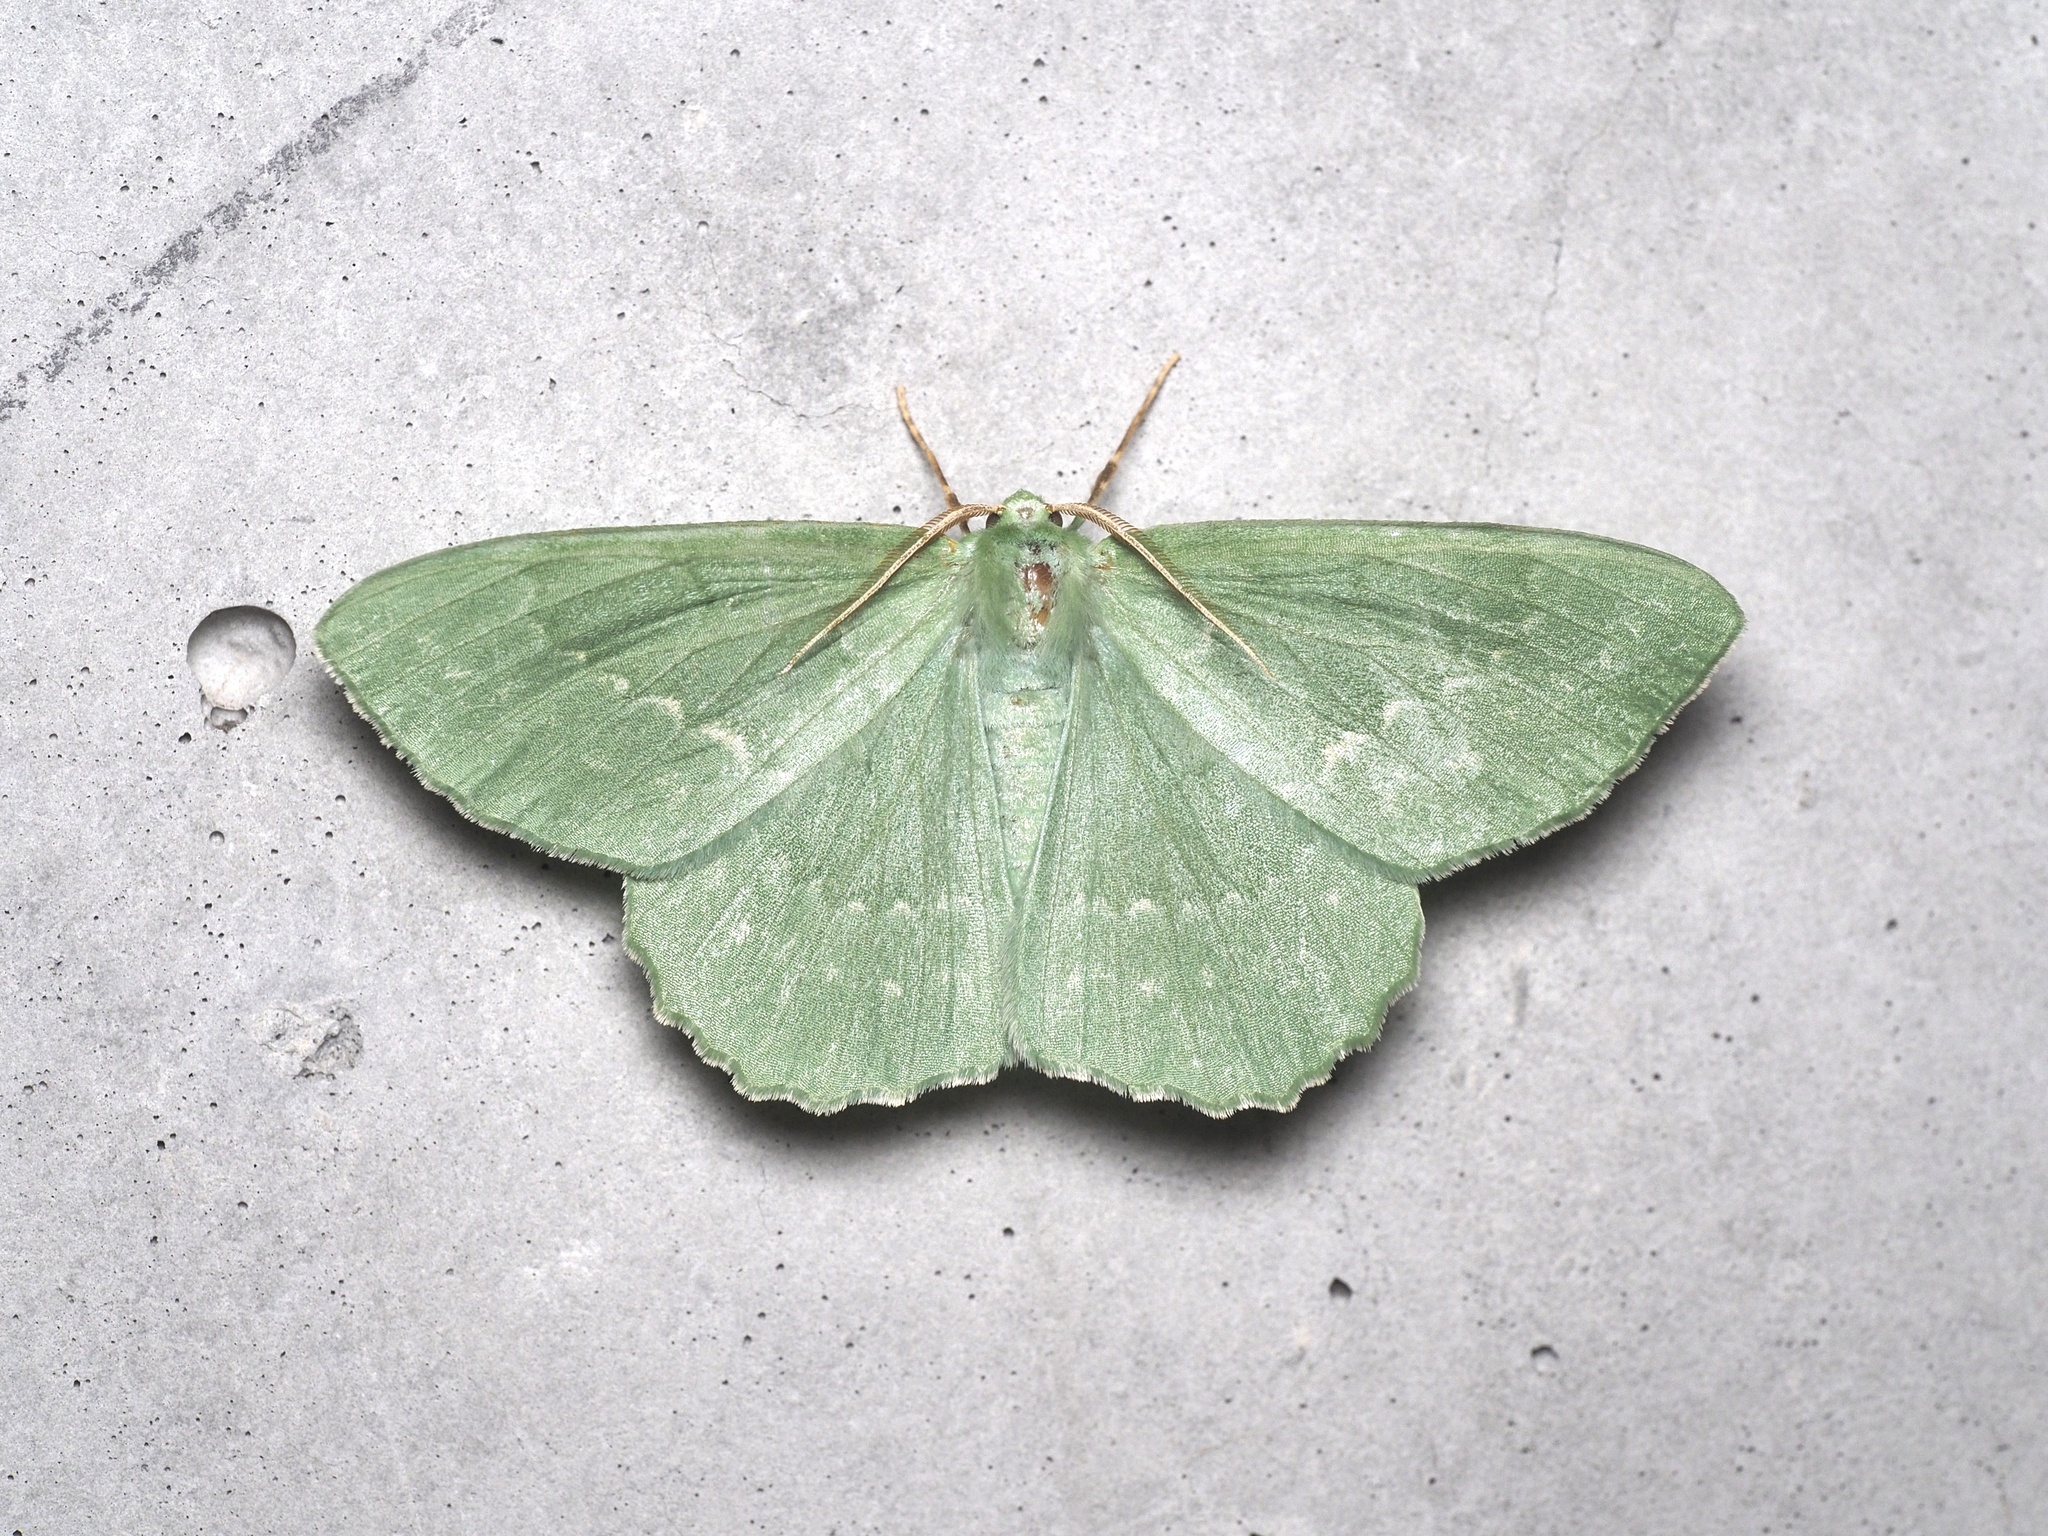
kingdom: Animalia
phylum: Arthropoda
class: Insecta
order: Lepidoptera
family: Geometridae
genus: Geometra
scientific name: Geometra papilionaria
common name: Large emerald
